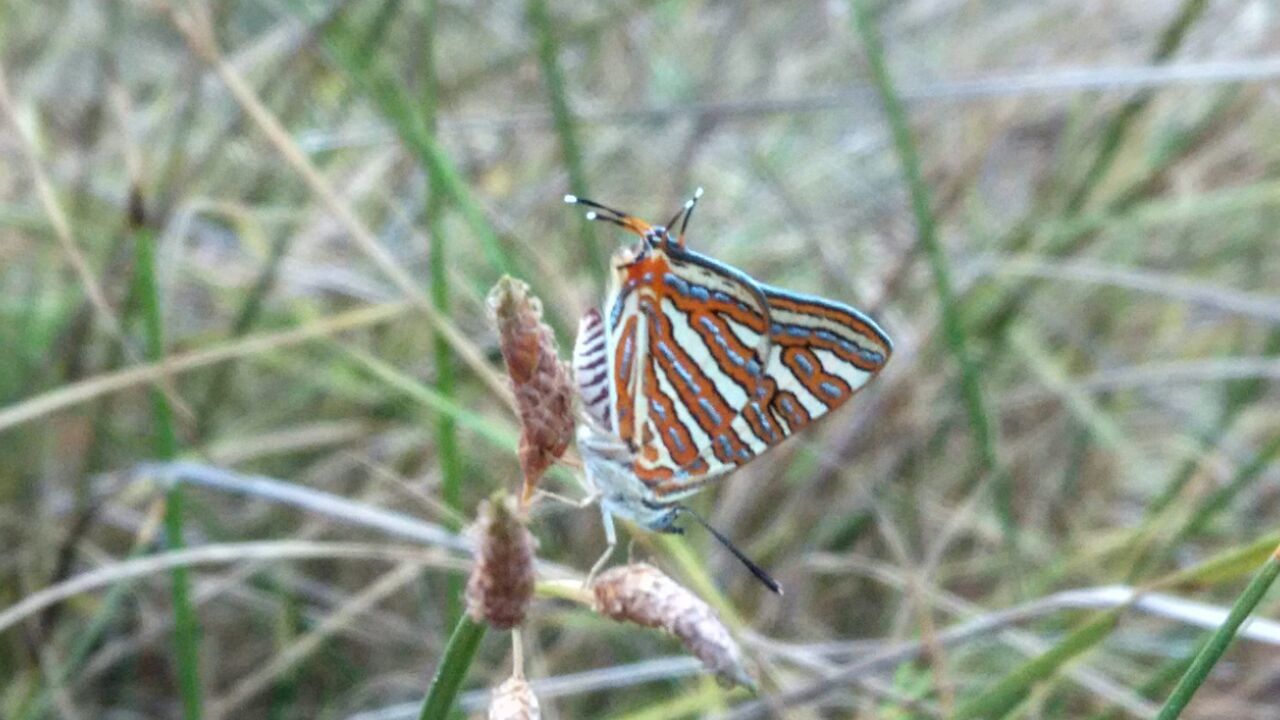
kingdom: Animalia
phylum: Arthropoda
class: Insecta
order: Lepidoptera
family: Lycaenidae
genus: Cigaritis
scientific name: Cigaritis vulcanus
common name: Common silverline
